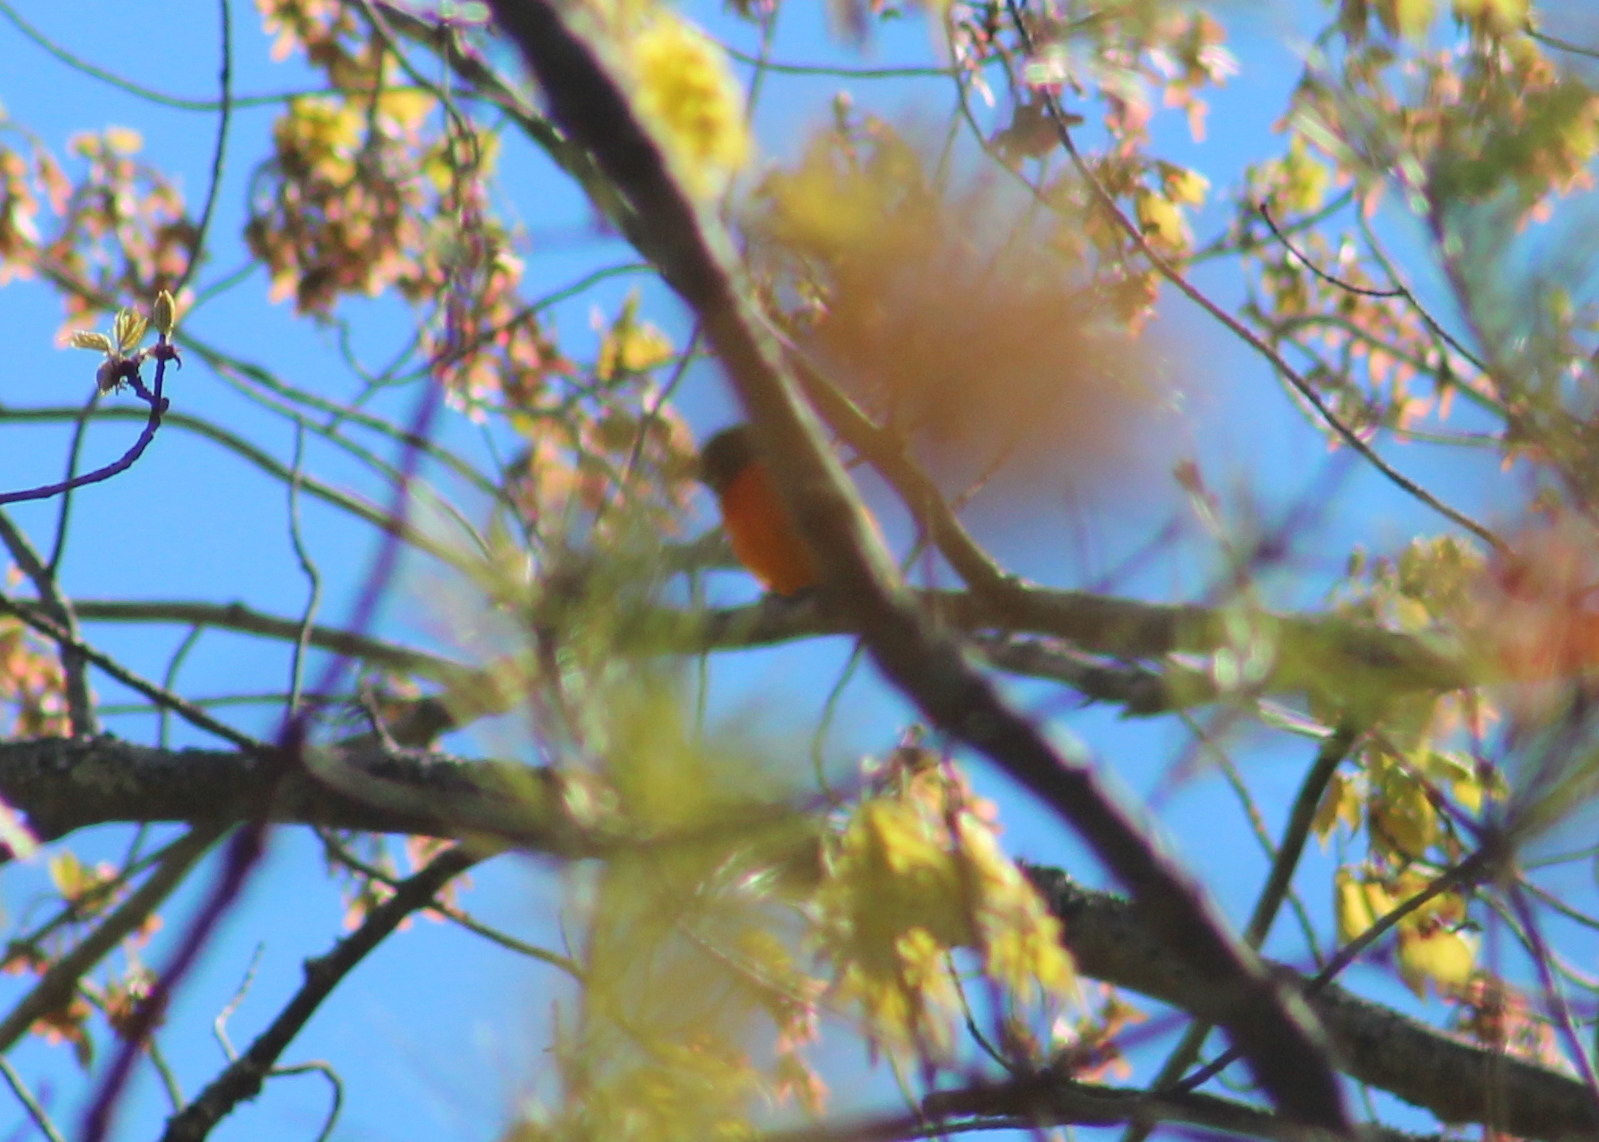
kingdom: Animalia
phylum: Chordata
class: Aves
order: Passeriformes
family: Icteridae
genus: Icterus
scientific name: Icterus galbula
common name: Baltimore oriole
